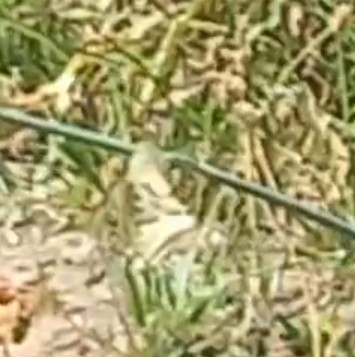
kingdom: Animalia
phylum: Arthropoda
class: Insecta
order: Lepidoptera
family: Papilionidae
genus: Papilio
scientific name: Papilio machaon
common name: Swallowtail
